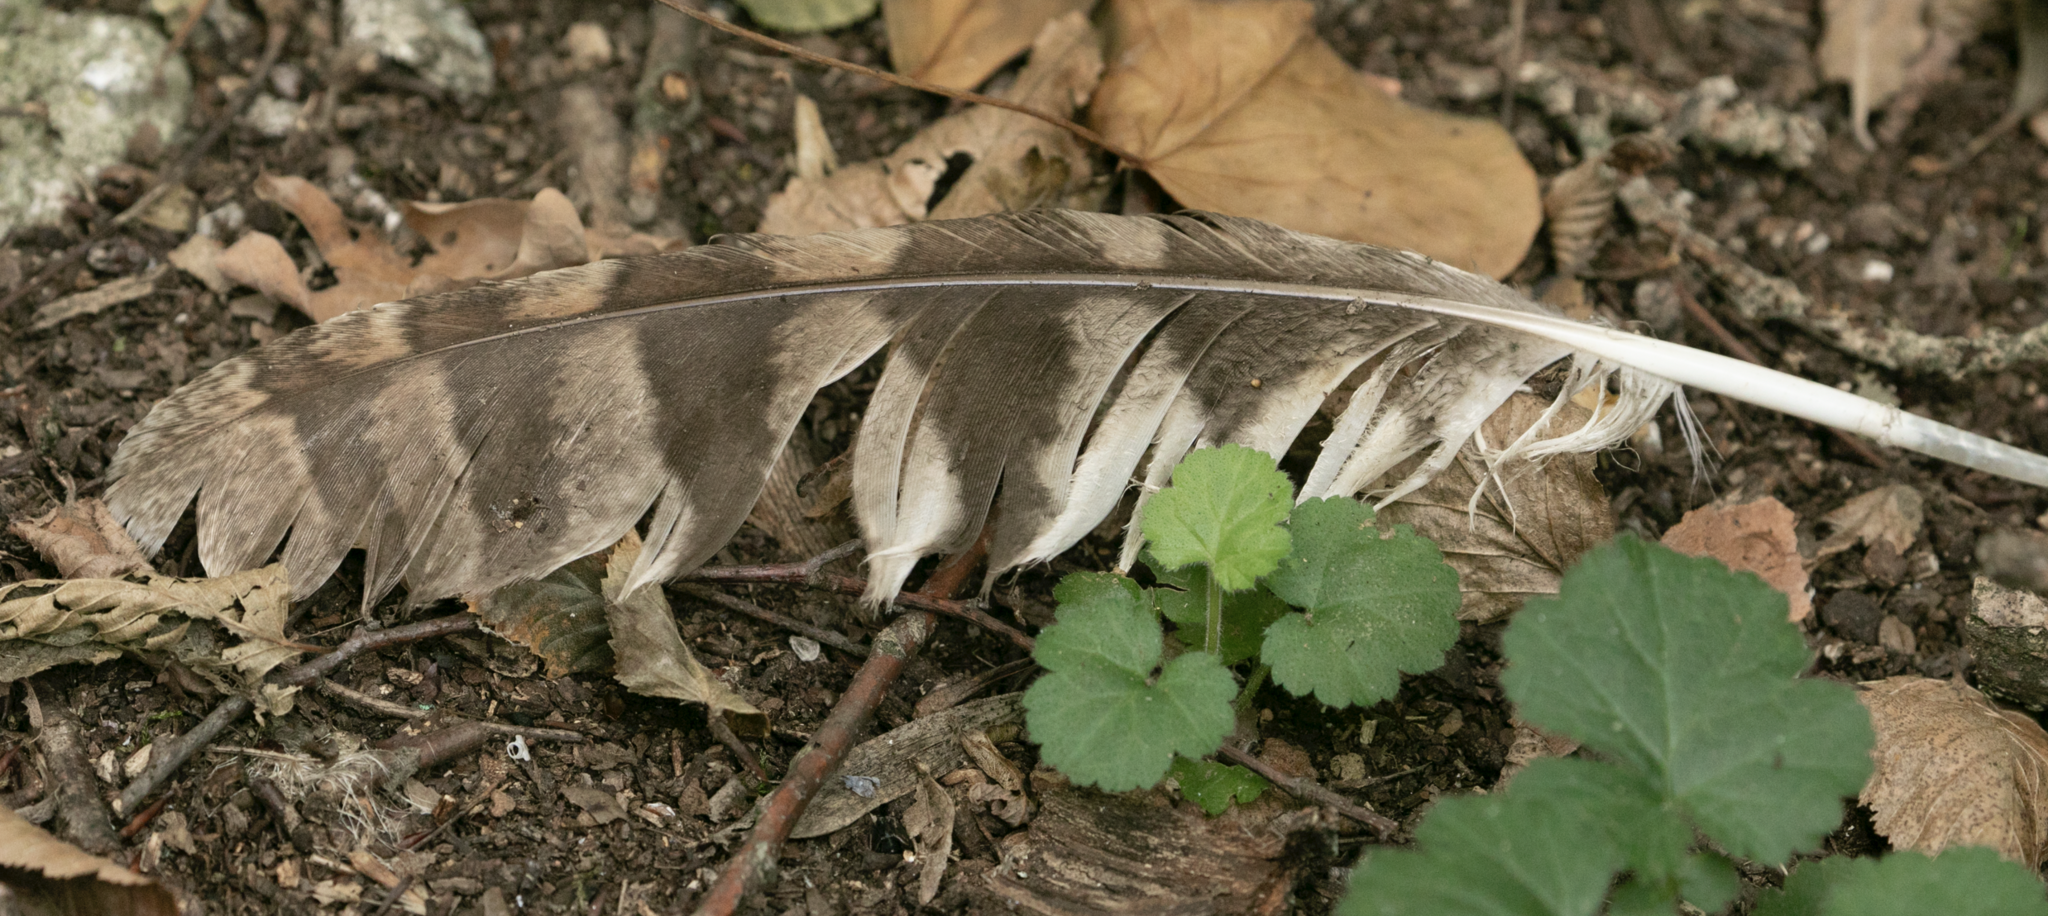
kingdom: Animalia
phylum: Chordata
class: Aves
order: Strigiformes
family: Strigidae
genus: Strix
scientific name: Strix aluco
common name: Tawny owl
